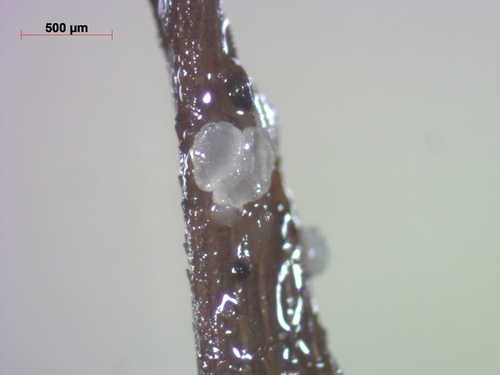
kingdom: Fungi
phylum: Ascomycota
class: Leotiomycetes
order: Helotiales
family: Hyaloscyphaceae
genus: Hyaloscypha
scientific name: Hyaloscypha secalina
